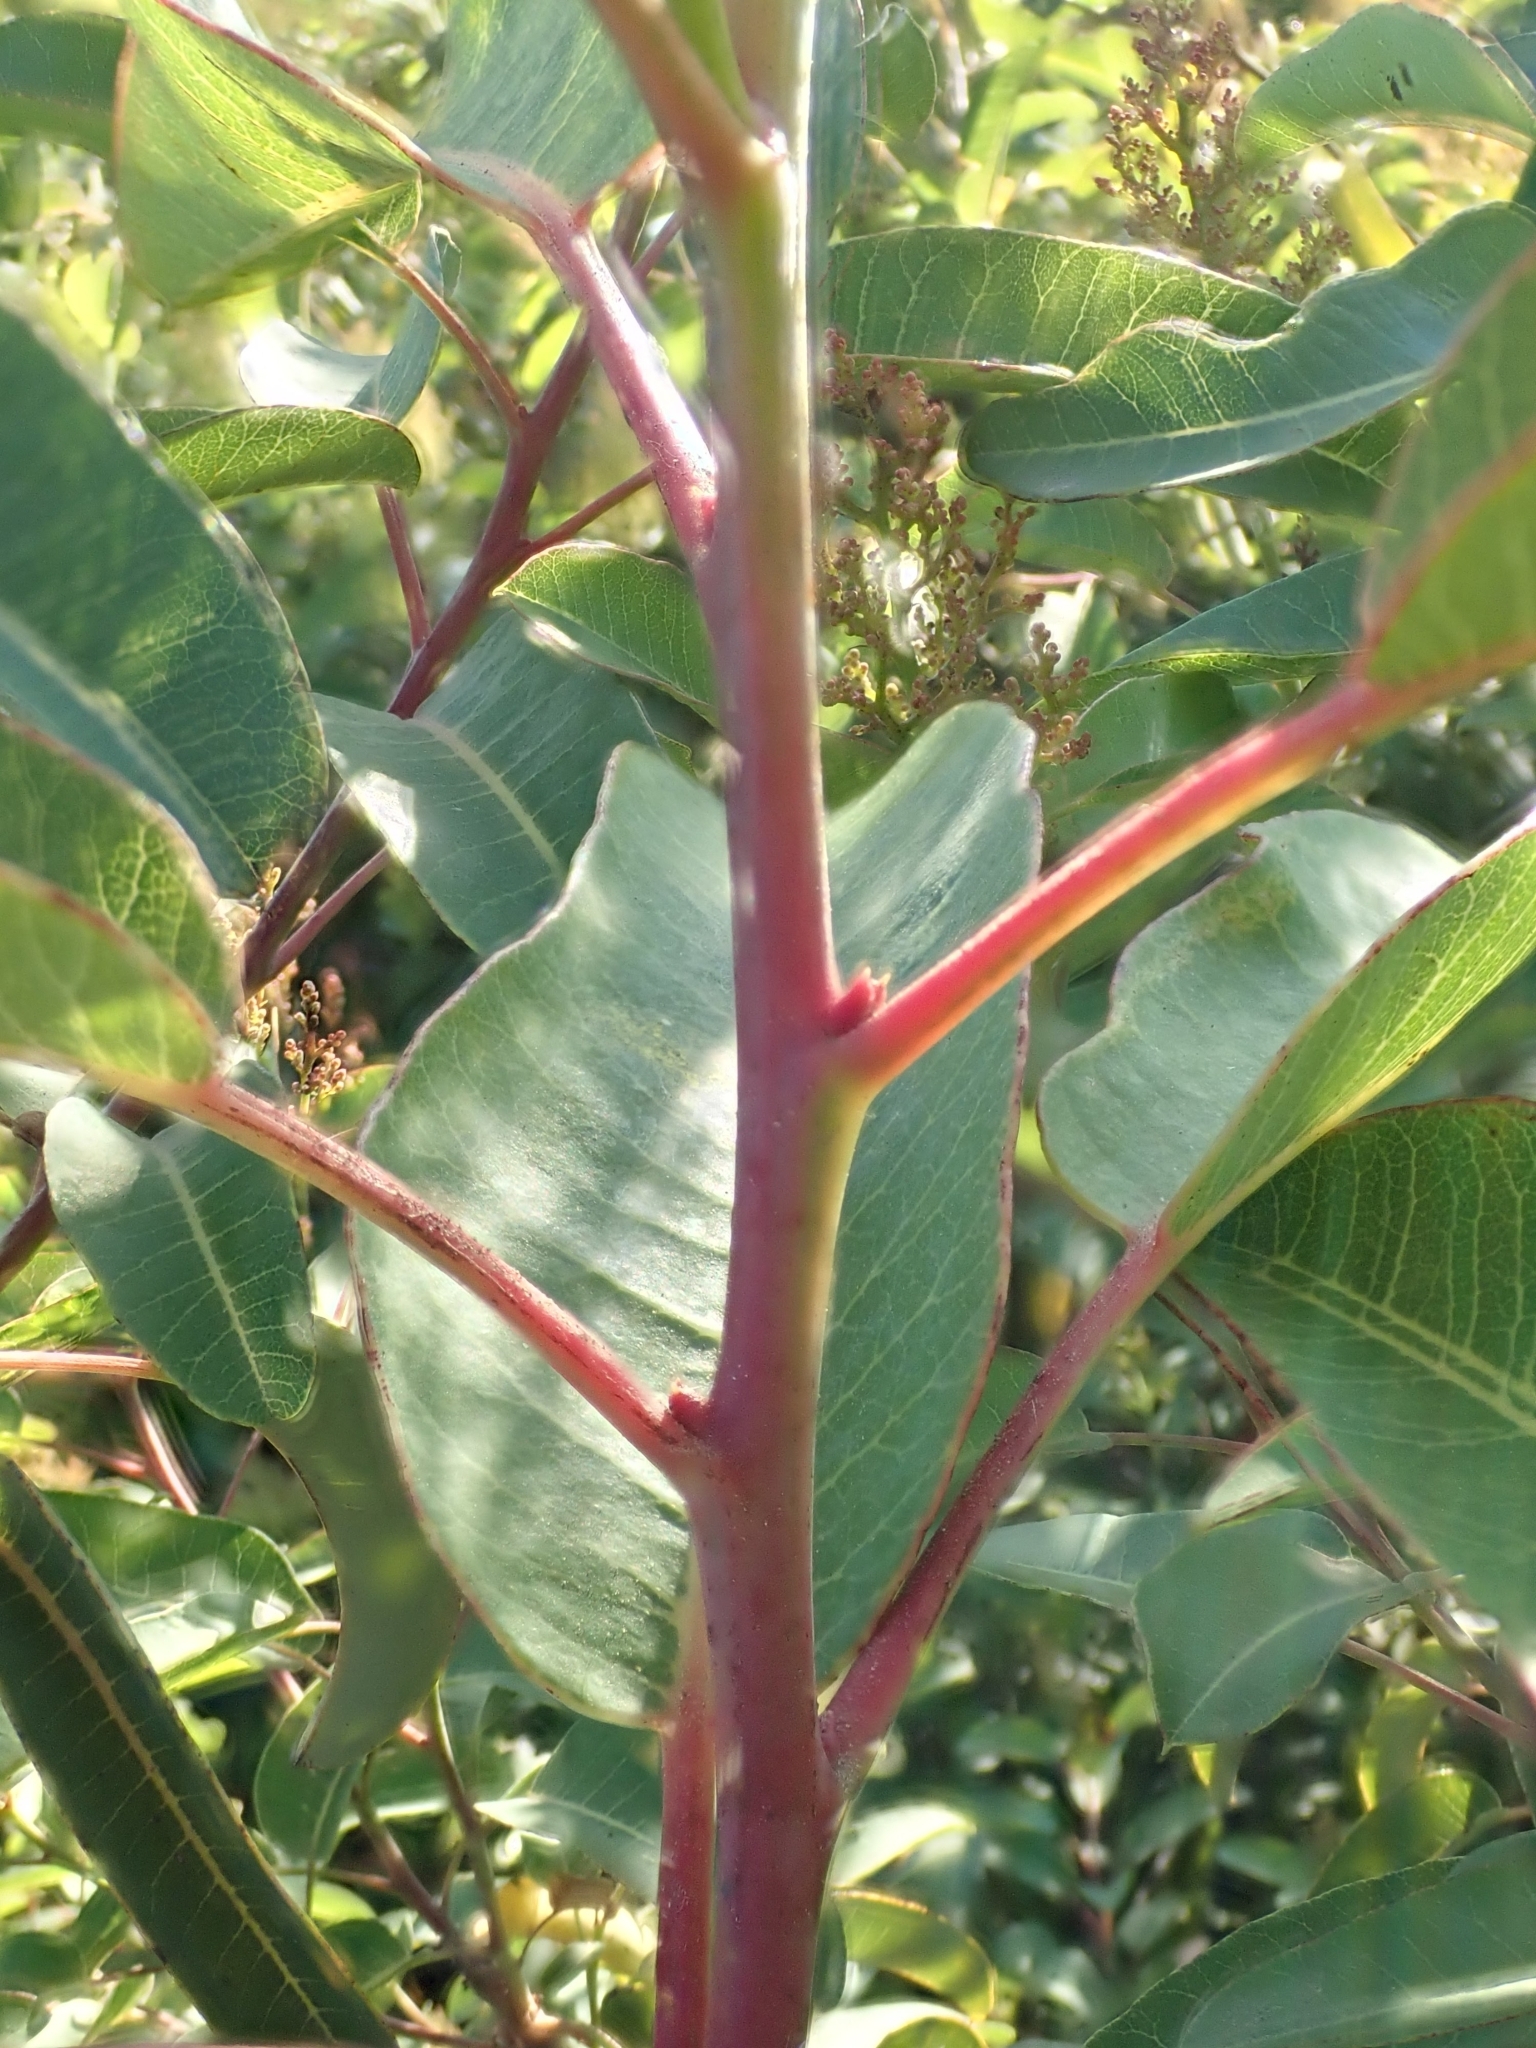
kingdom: Plantae
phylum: Tracheophyta
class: Magnoliopsida
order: Sapindales
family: Anacardiaceae
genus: Malosma
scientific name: Malosma laurina
